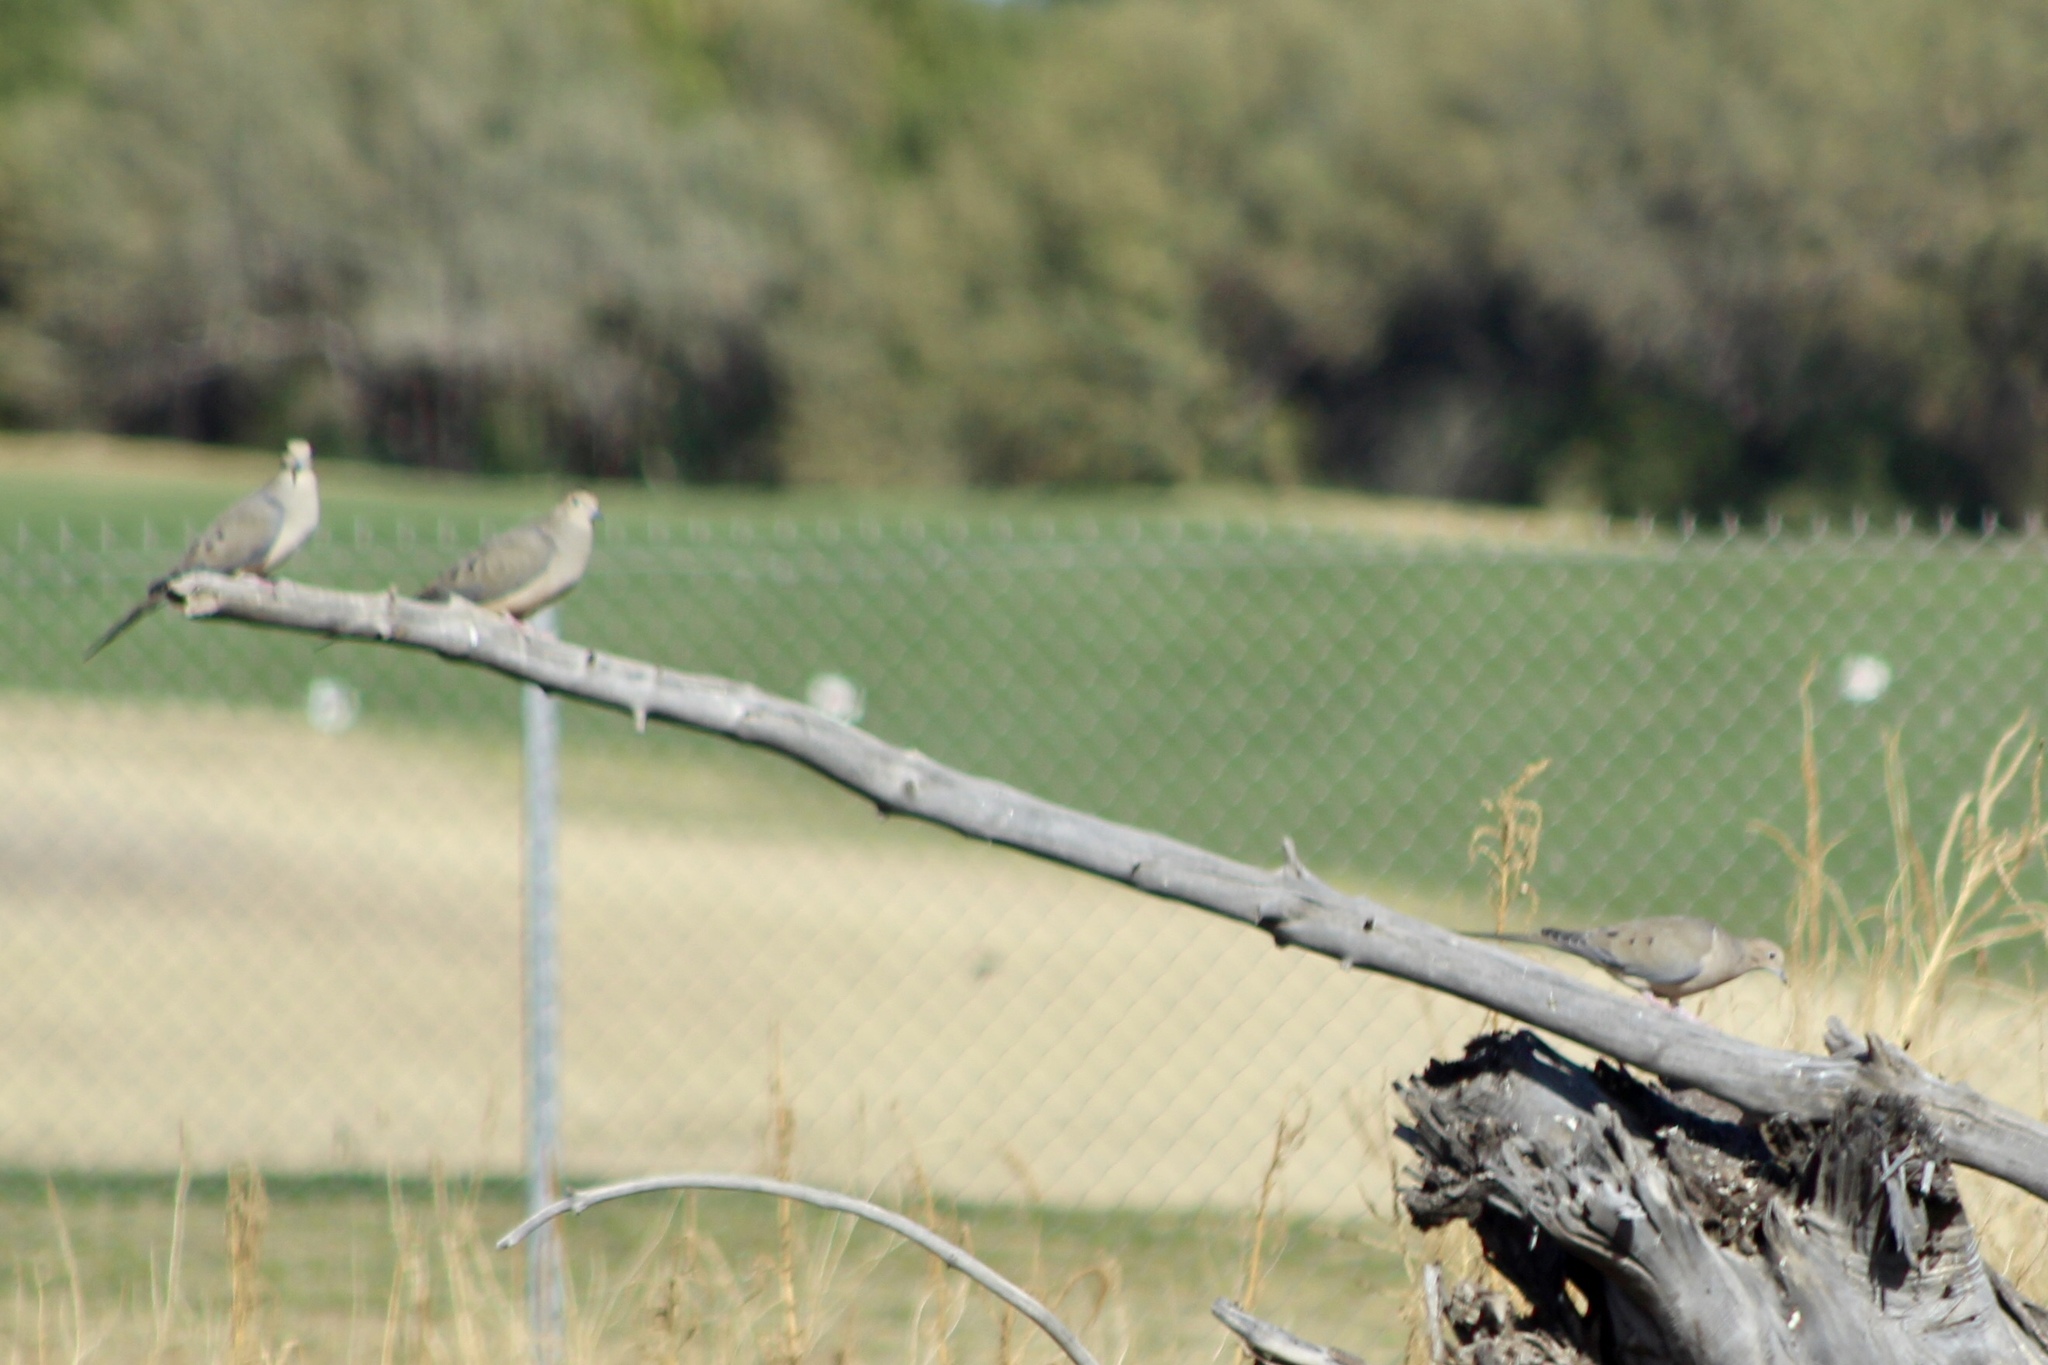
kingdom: Animalia
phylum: Chordata
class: Aves
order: Columbiformes
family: Columbidae
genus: Zenaida
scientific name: Zenaida macroura
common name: Mourning dove
